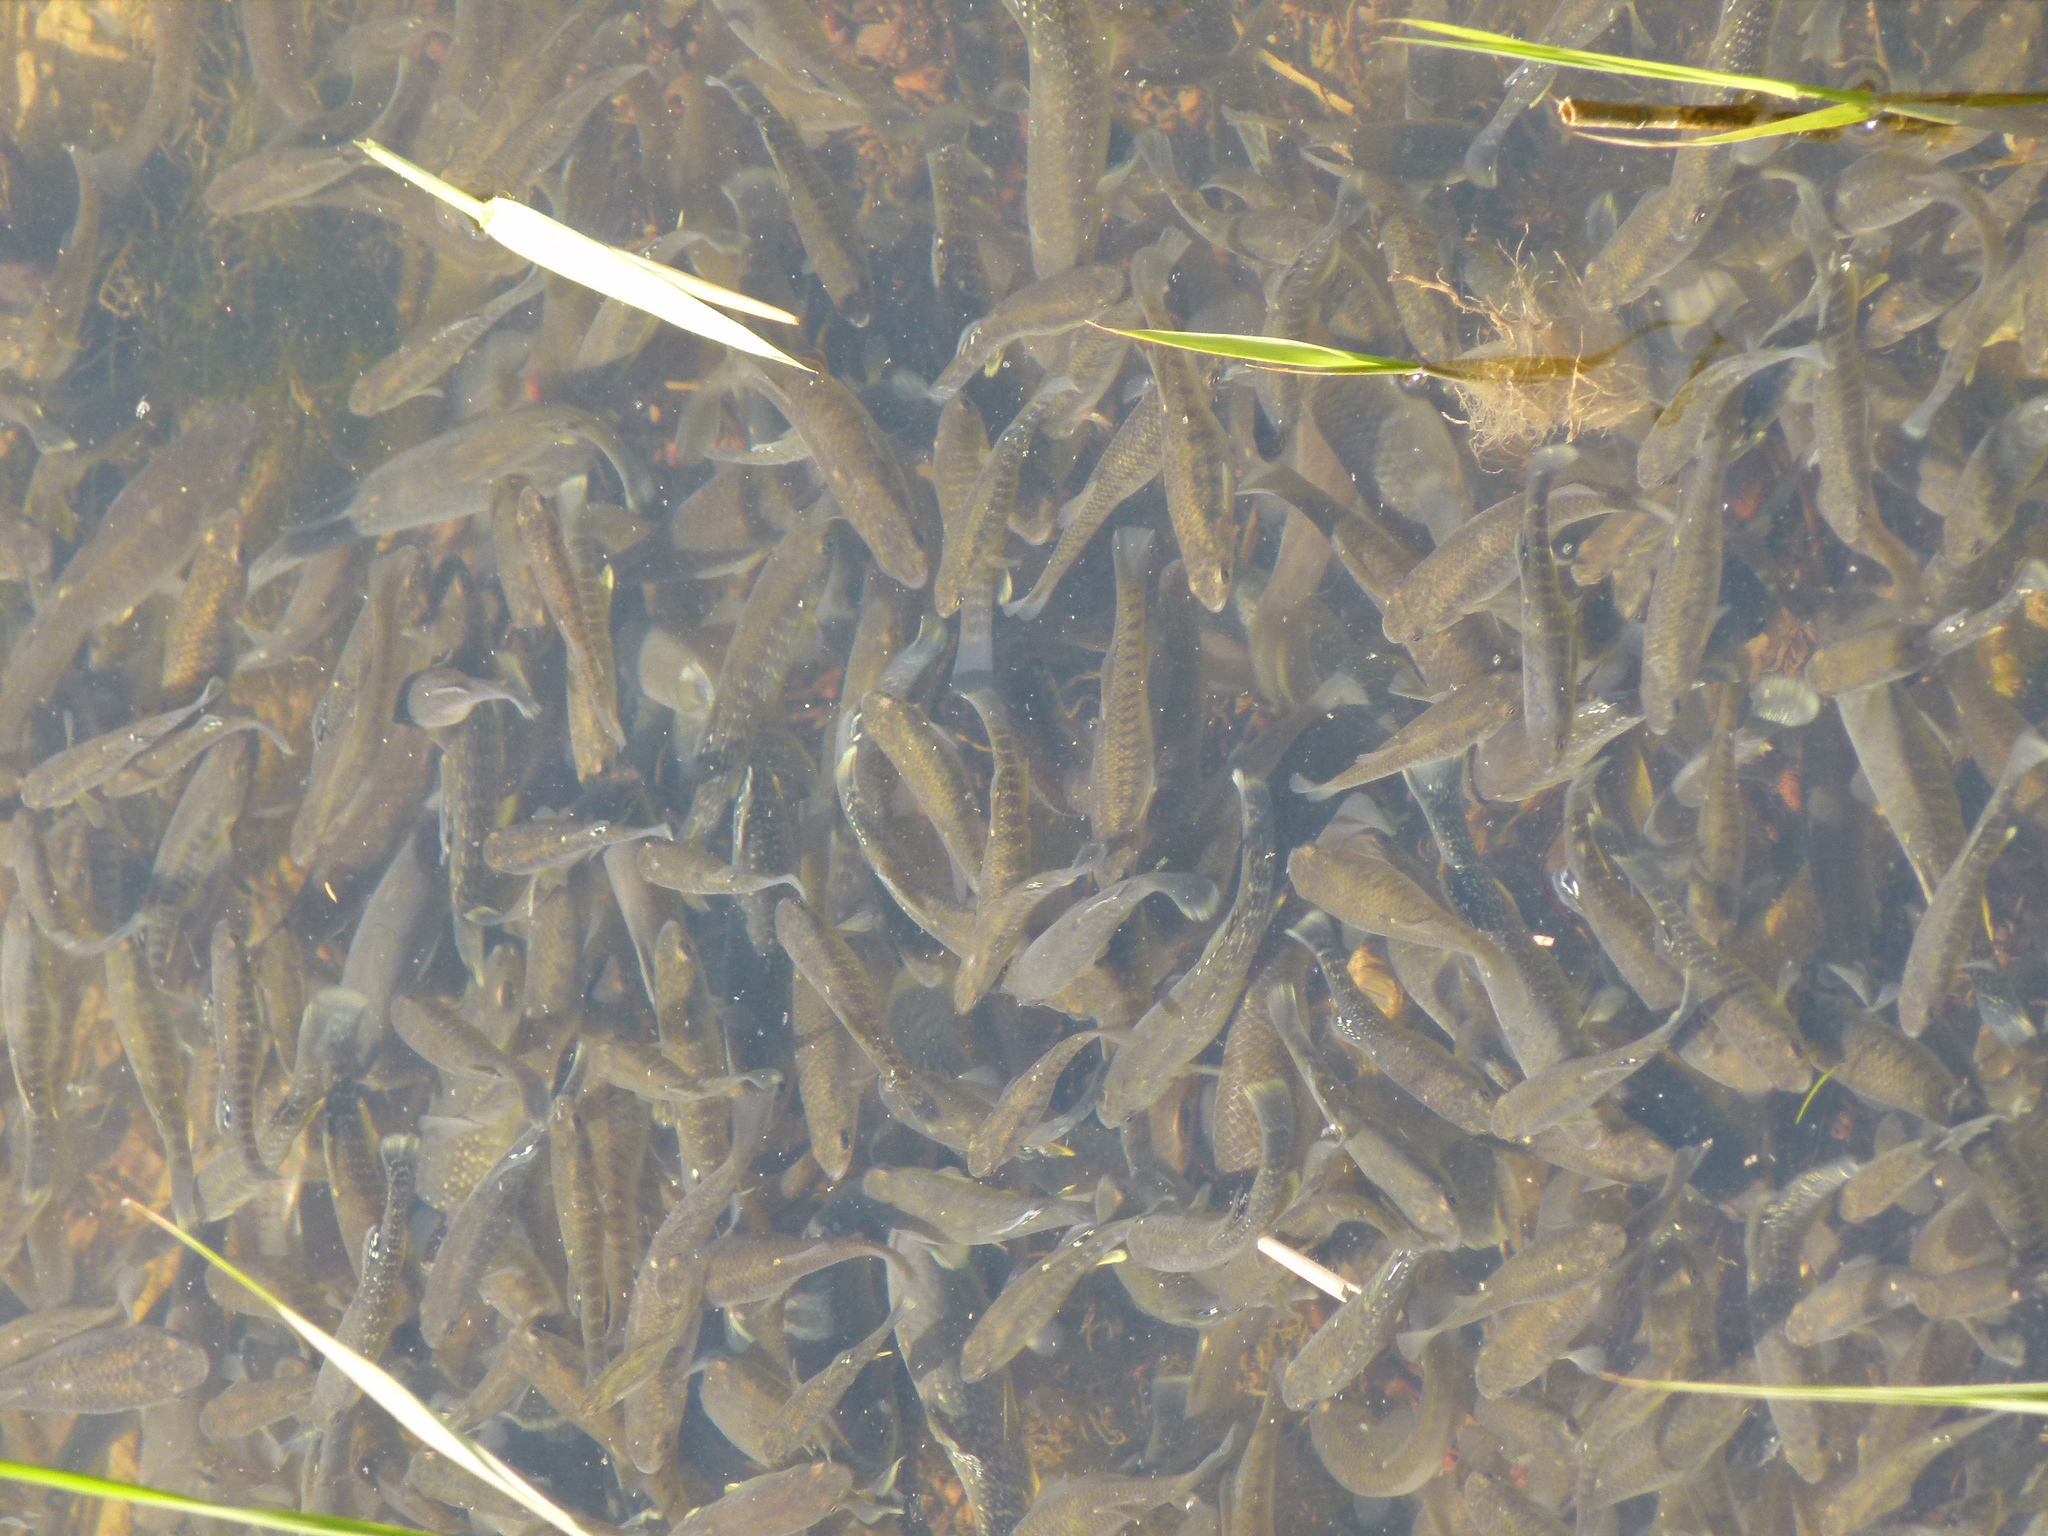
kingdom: Animalia
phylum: Chordata
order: Cyprinodontiformes
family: Fundulidae
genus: Fundulus
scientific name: Fundulus heteroclitus
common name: Mummichog
